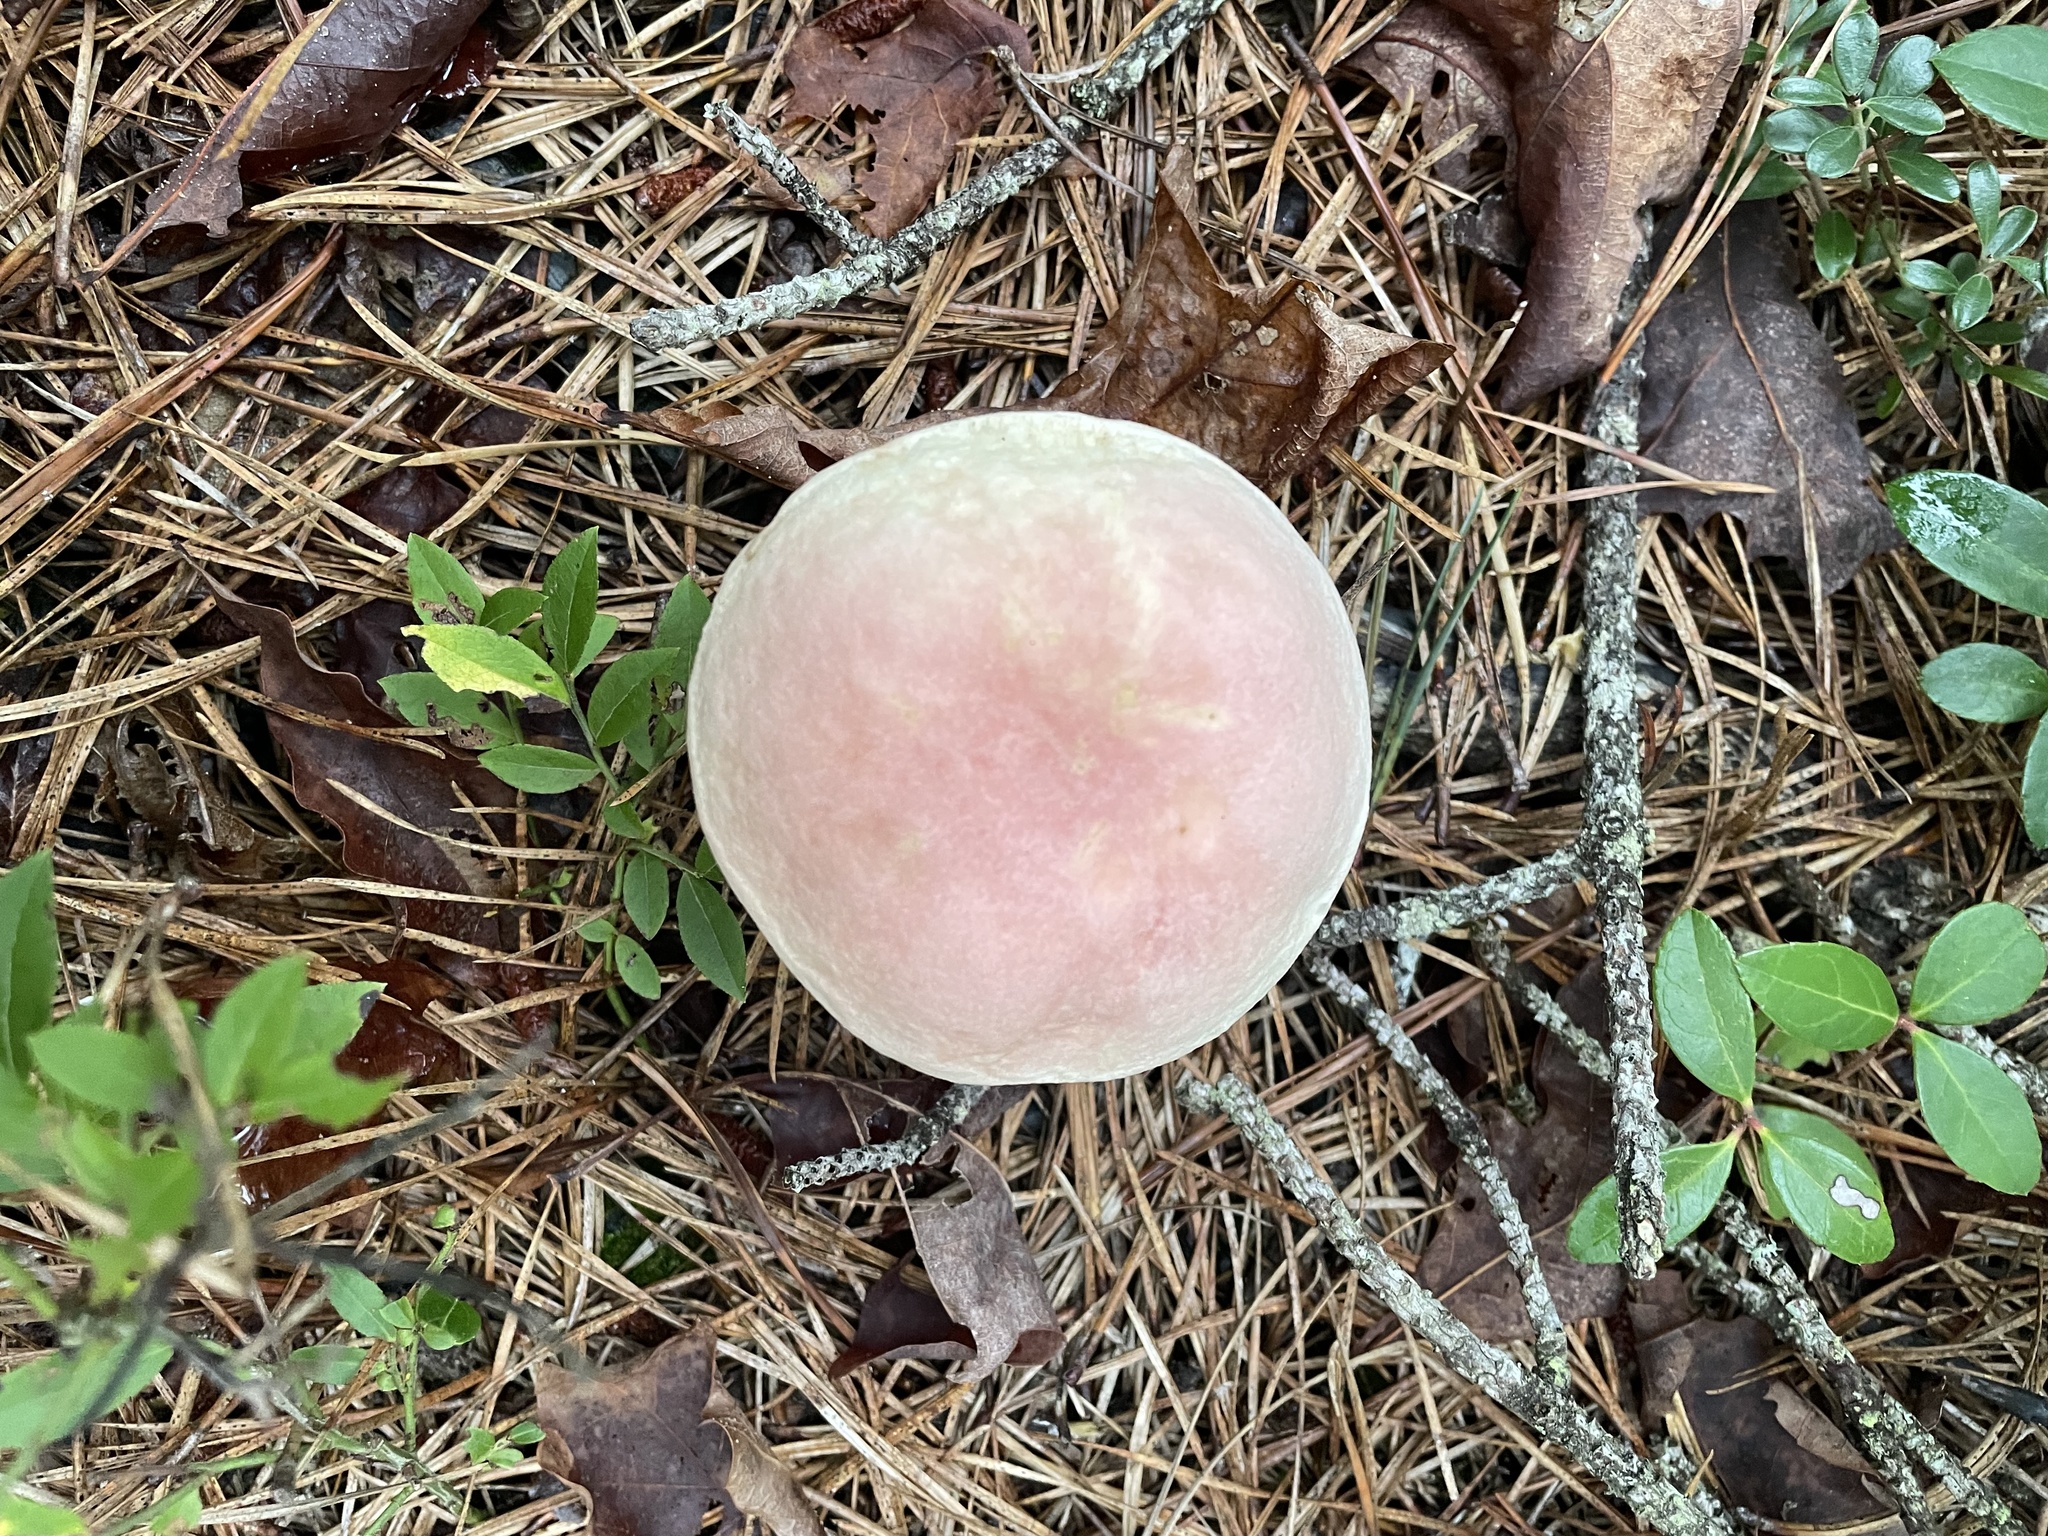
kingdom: Fungi
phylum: Basidiomycota
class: Agaricomycetes
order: Boletales
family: Boletaceae
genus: Harrya
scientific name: Harrya chromipes
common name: Chrome-footed bolete
